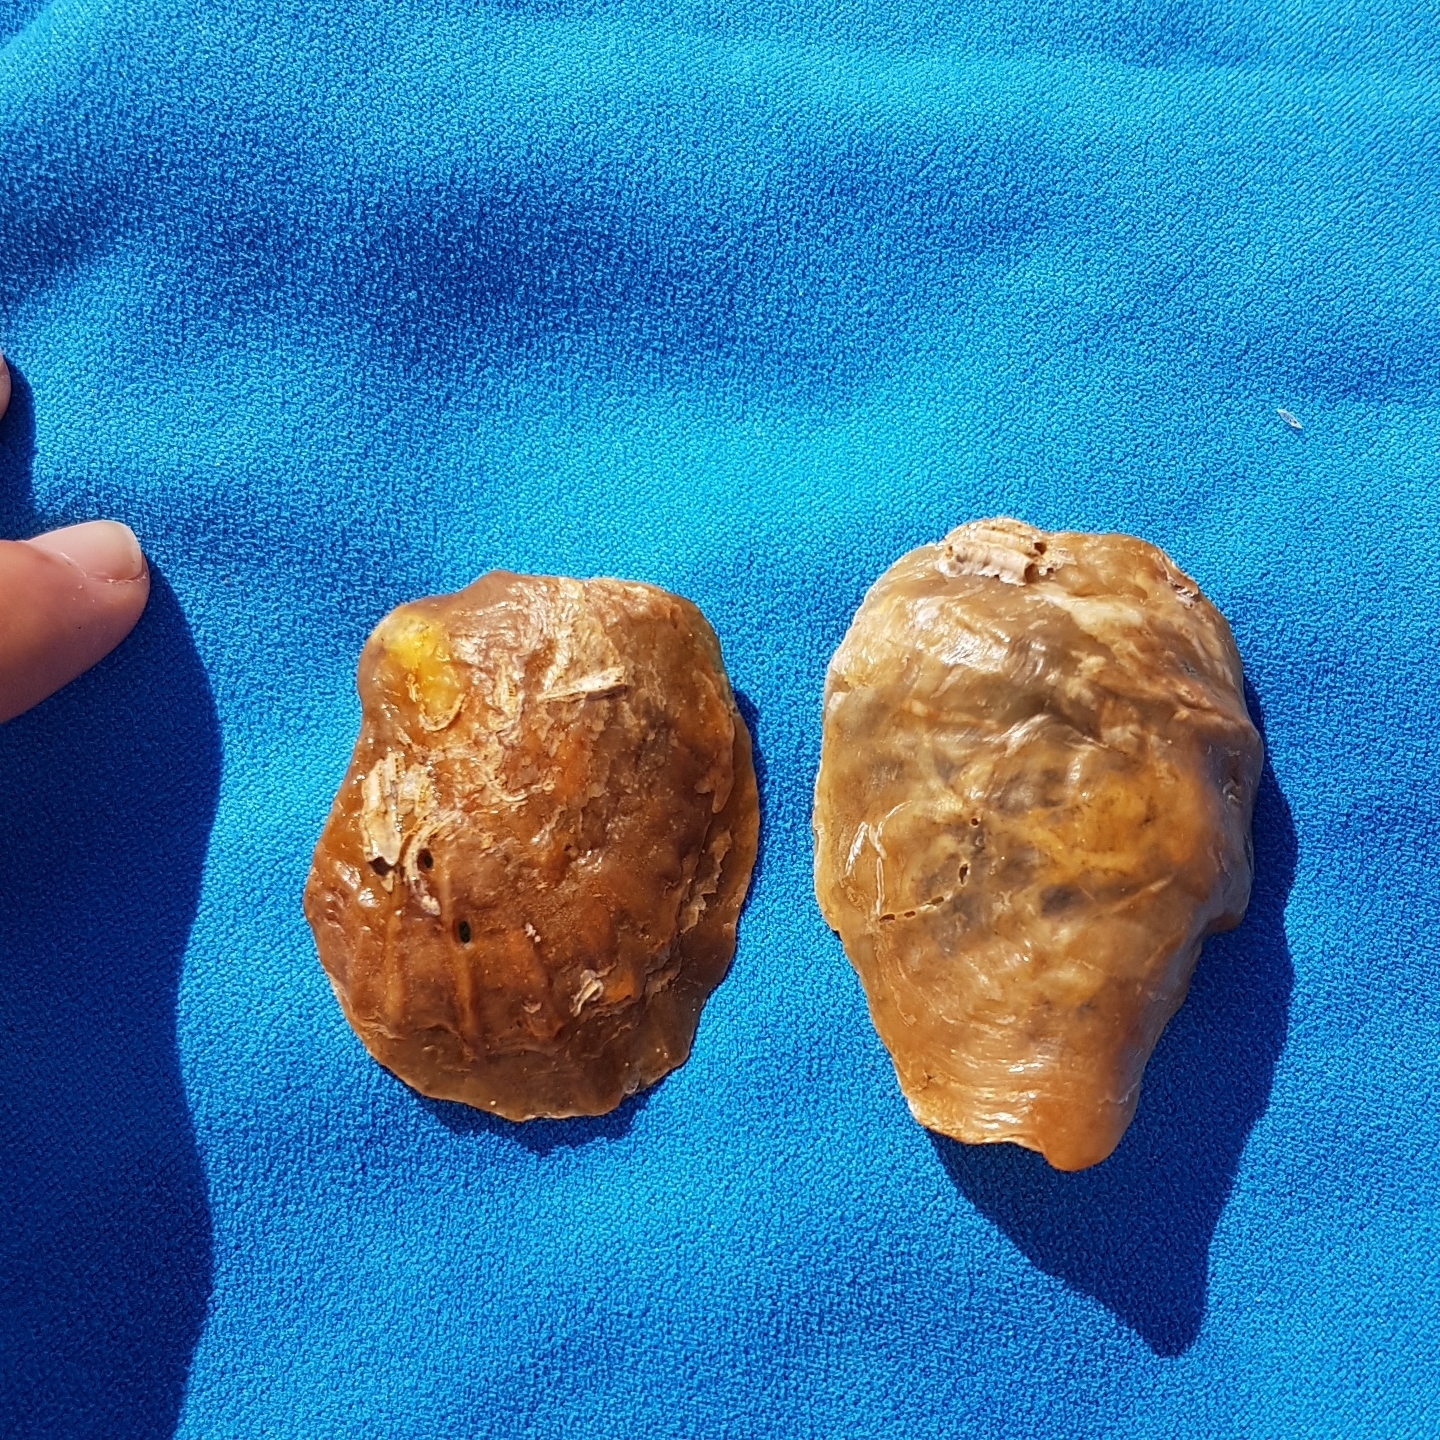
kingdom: Animalia
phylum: Mollusca
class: Bivalvia
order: Pectinida
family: Anomiidae
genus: Anomia
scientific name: Anomia ephippium
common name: Saddle oyster
